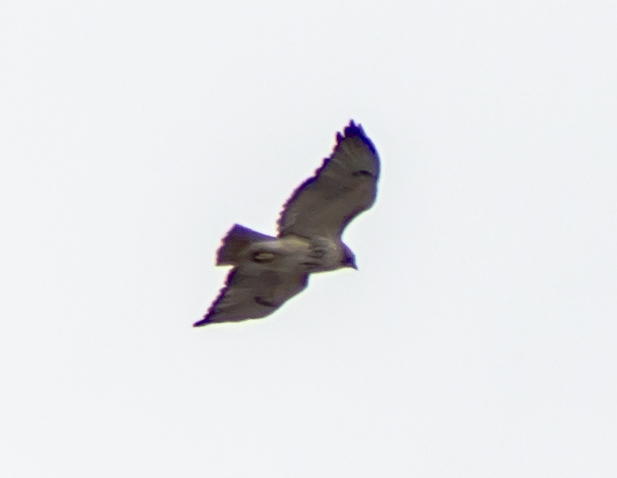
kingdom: Animalia
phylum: Chordata
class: Aves
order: Accipitriformes
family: Accipitridae
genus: Buteo
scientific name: Buteo jamaicensis
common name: Red-tailed hawk
